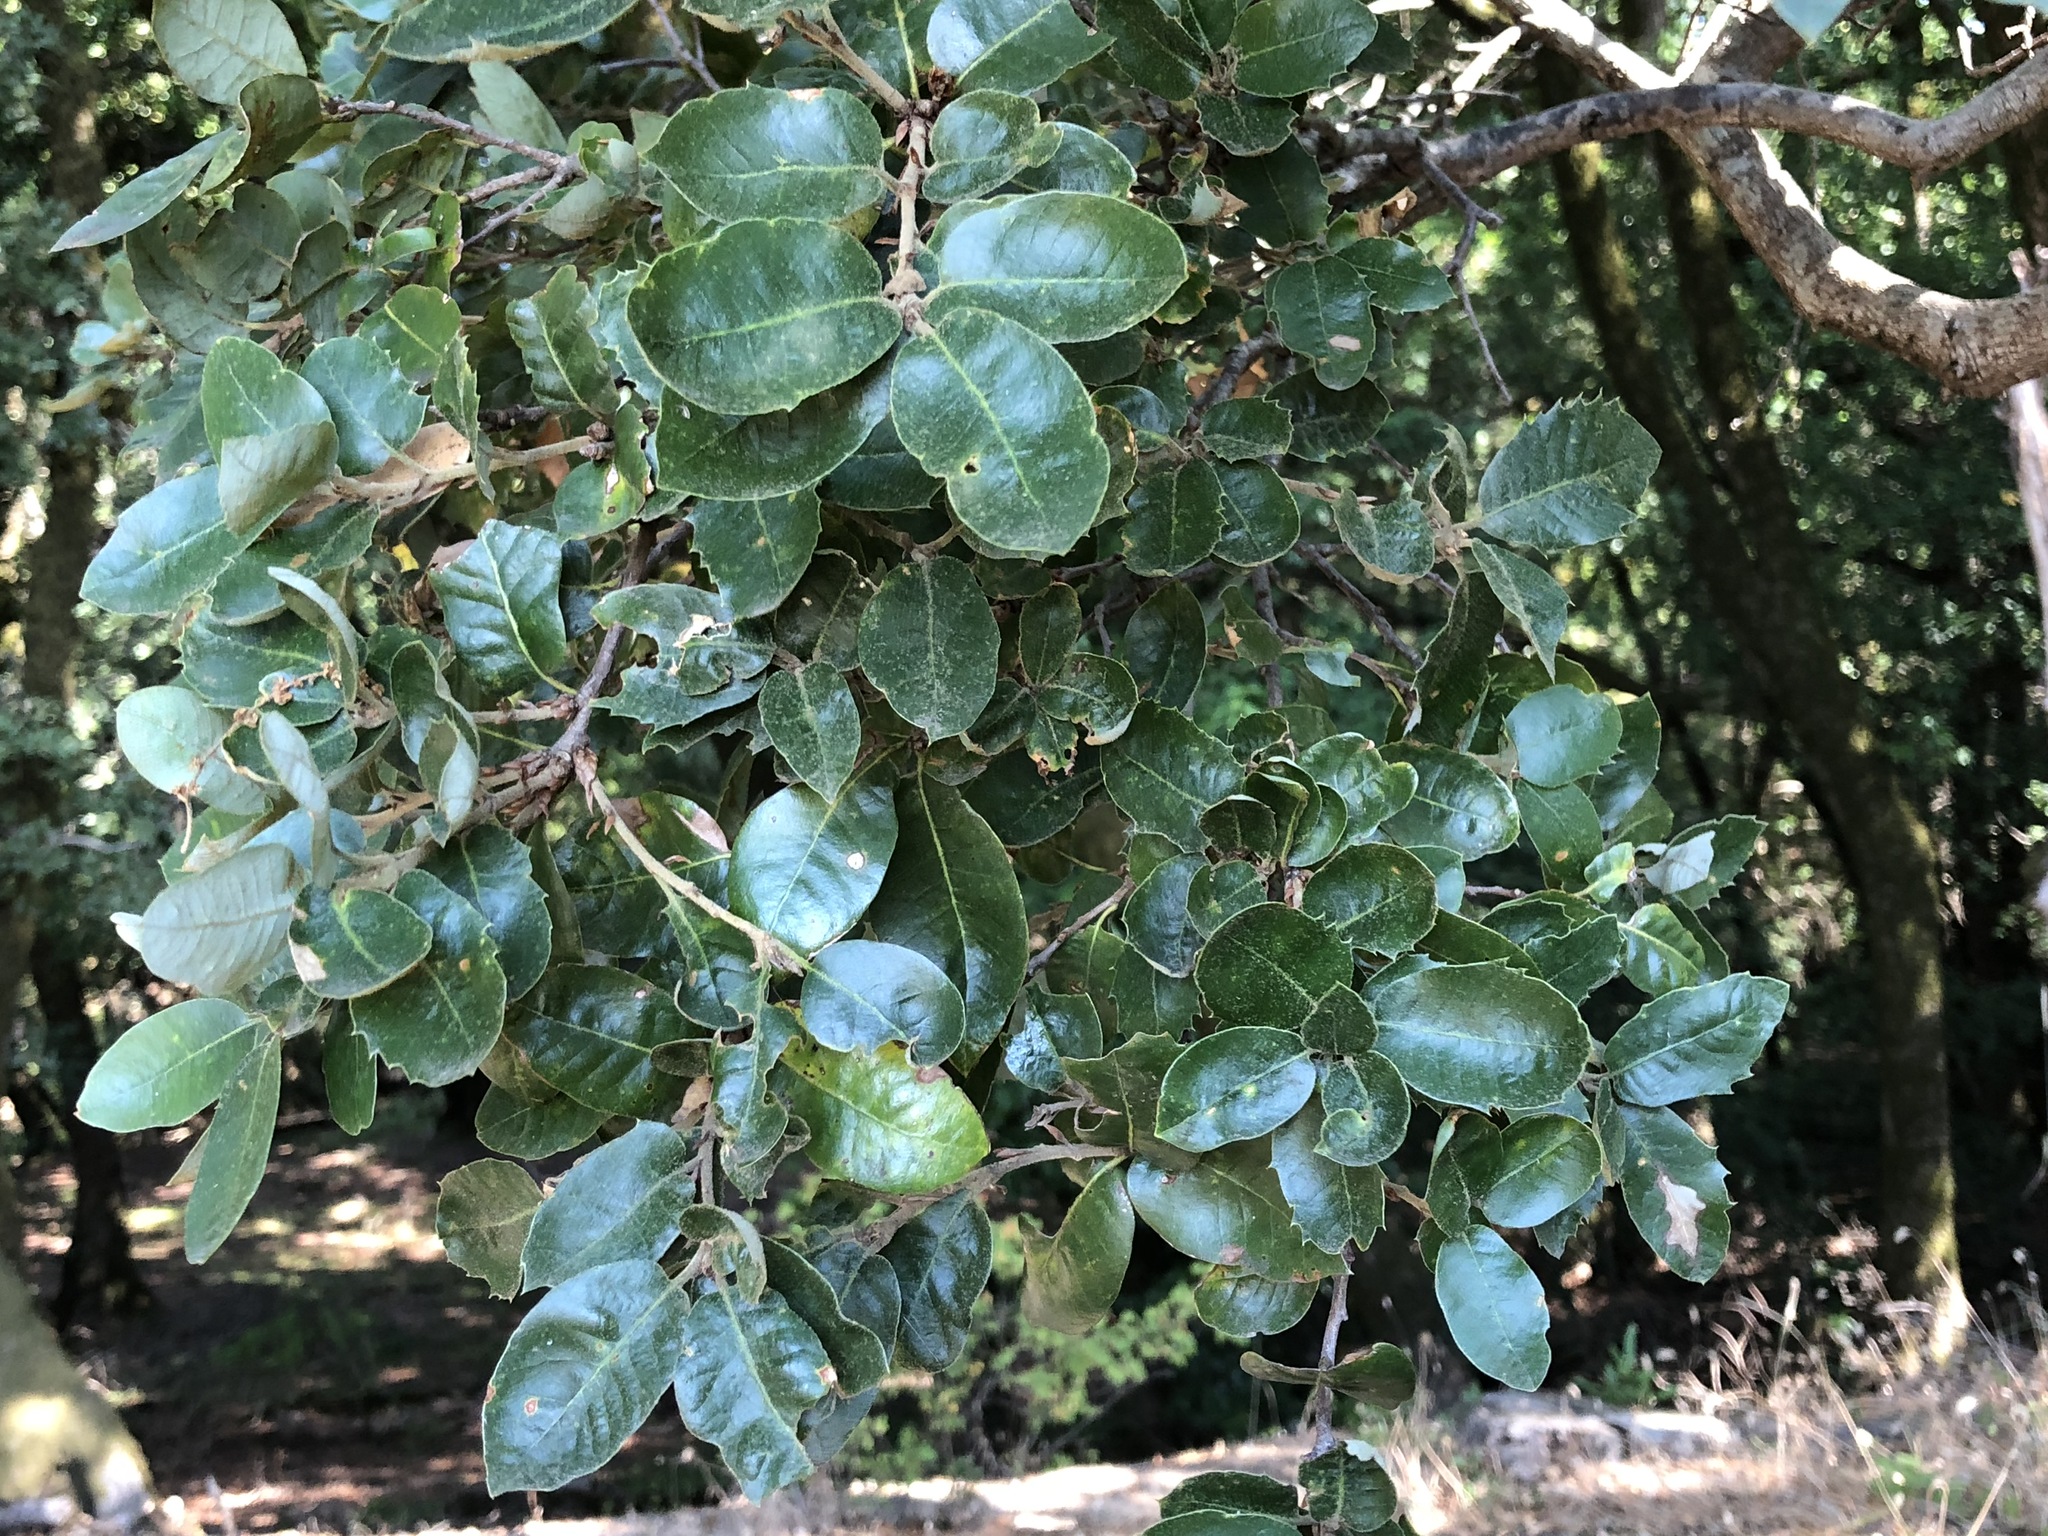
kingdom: Plantae
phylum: Tracheophyta
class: Magnoliopsida
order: Fagales
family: Fagaceae
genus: Quercus
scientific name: Quercus chrysolepis
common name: Canyon live oak
